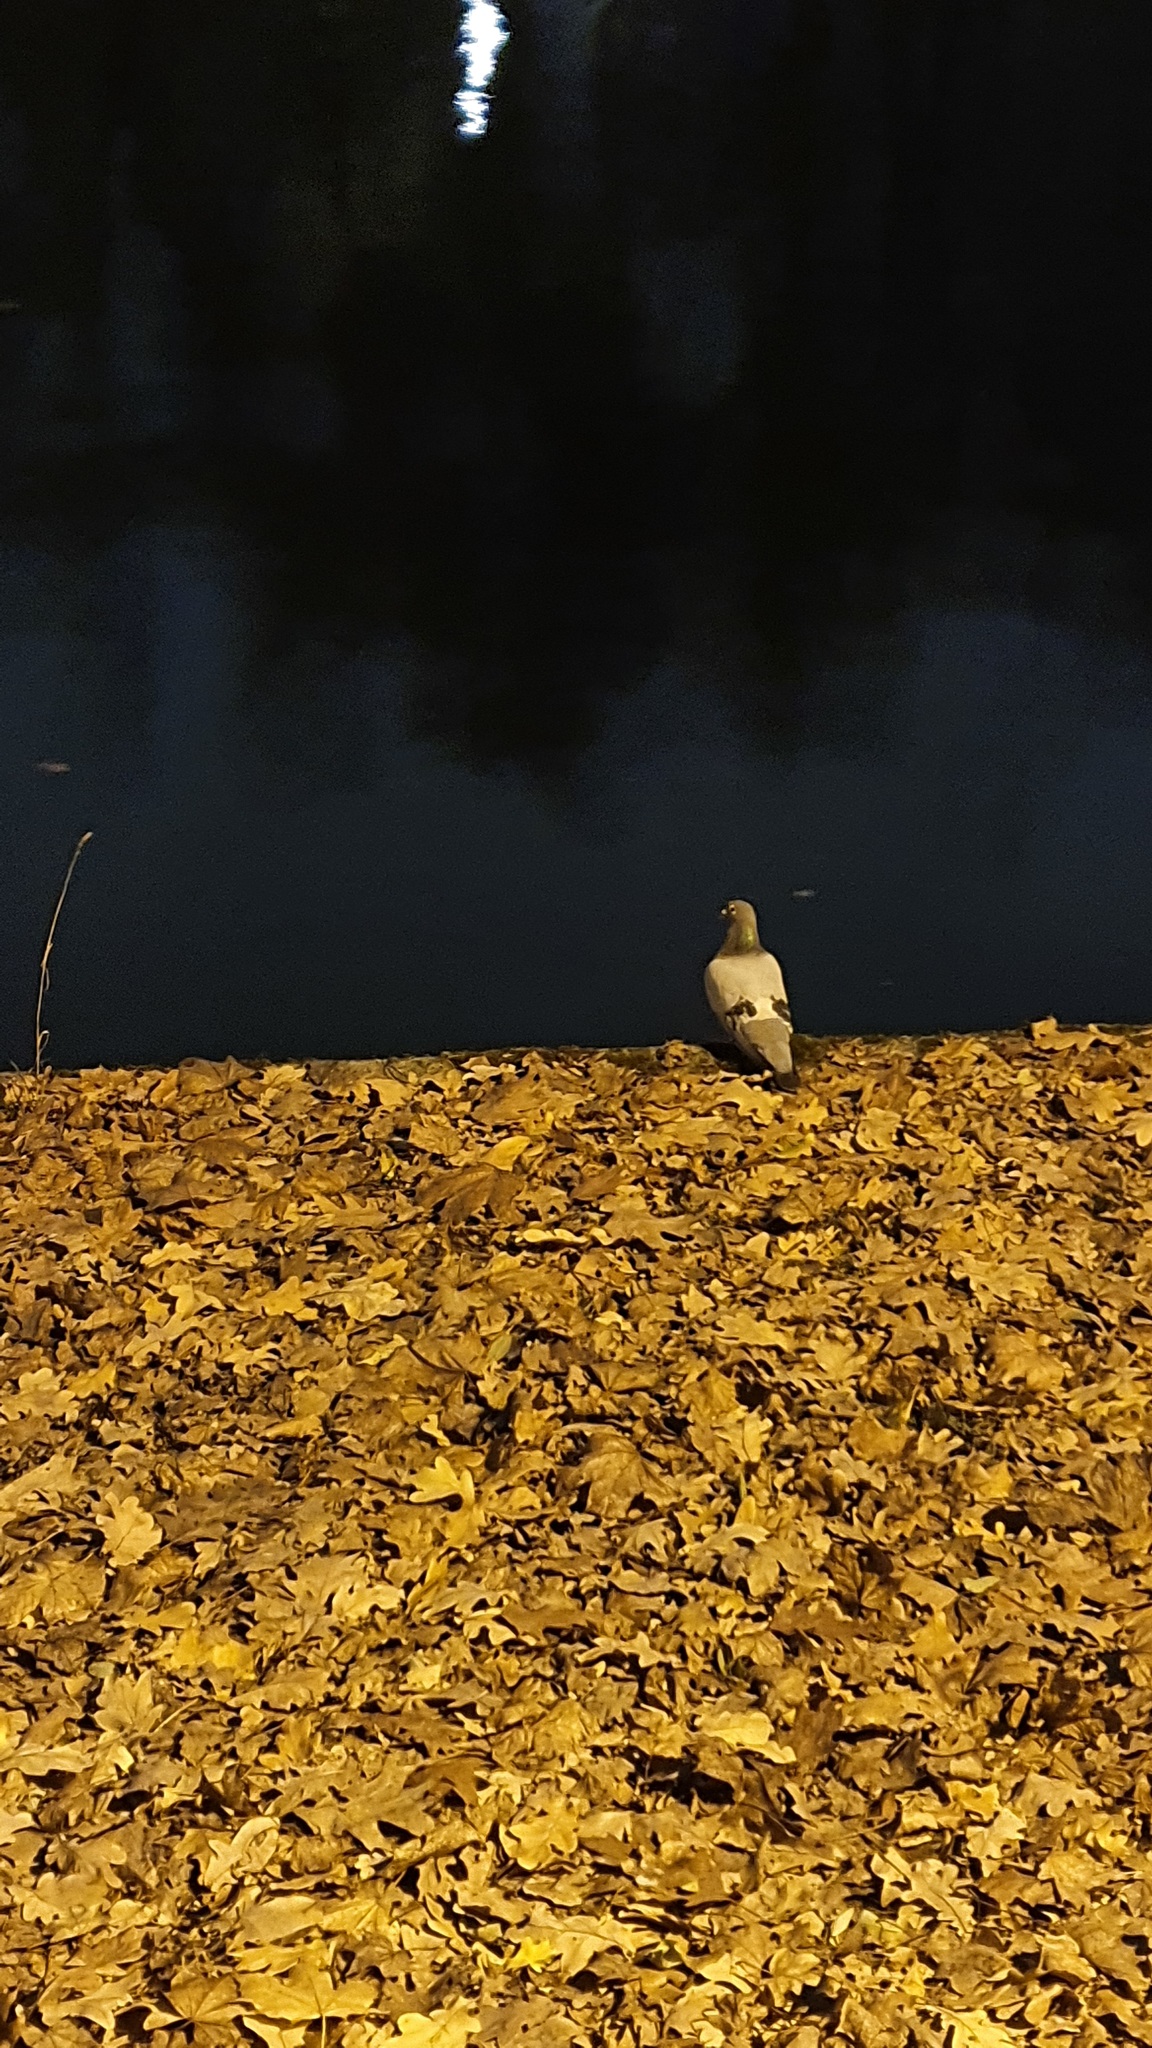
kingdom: Animalia
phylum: Chordata
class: Aves
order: Columbiformes
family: Columbidae
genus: Columba
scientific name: Columba livia
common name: Rock pigeon
